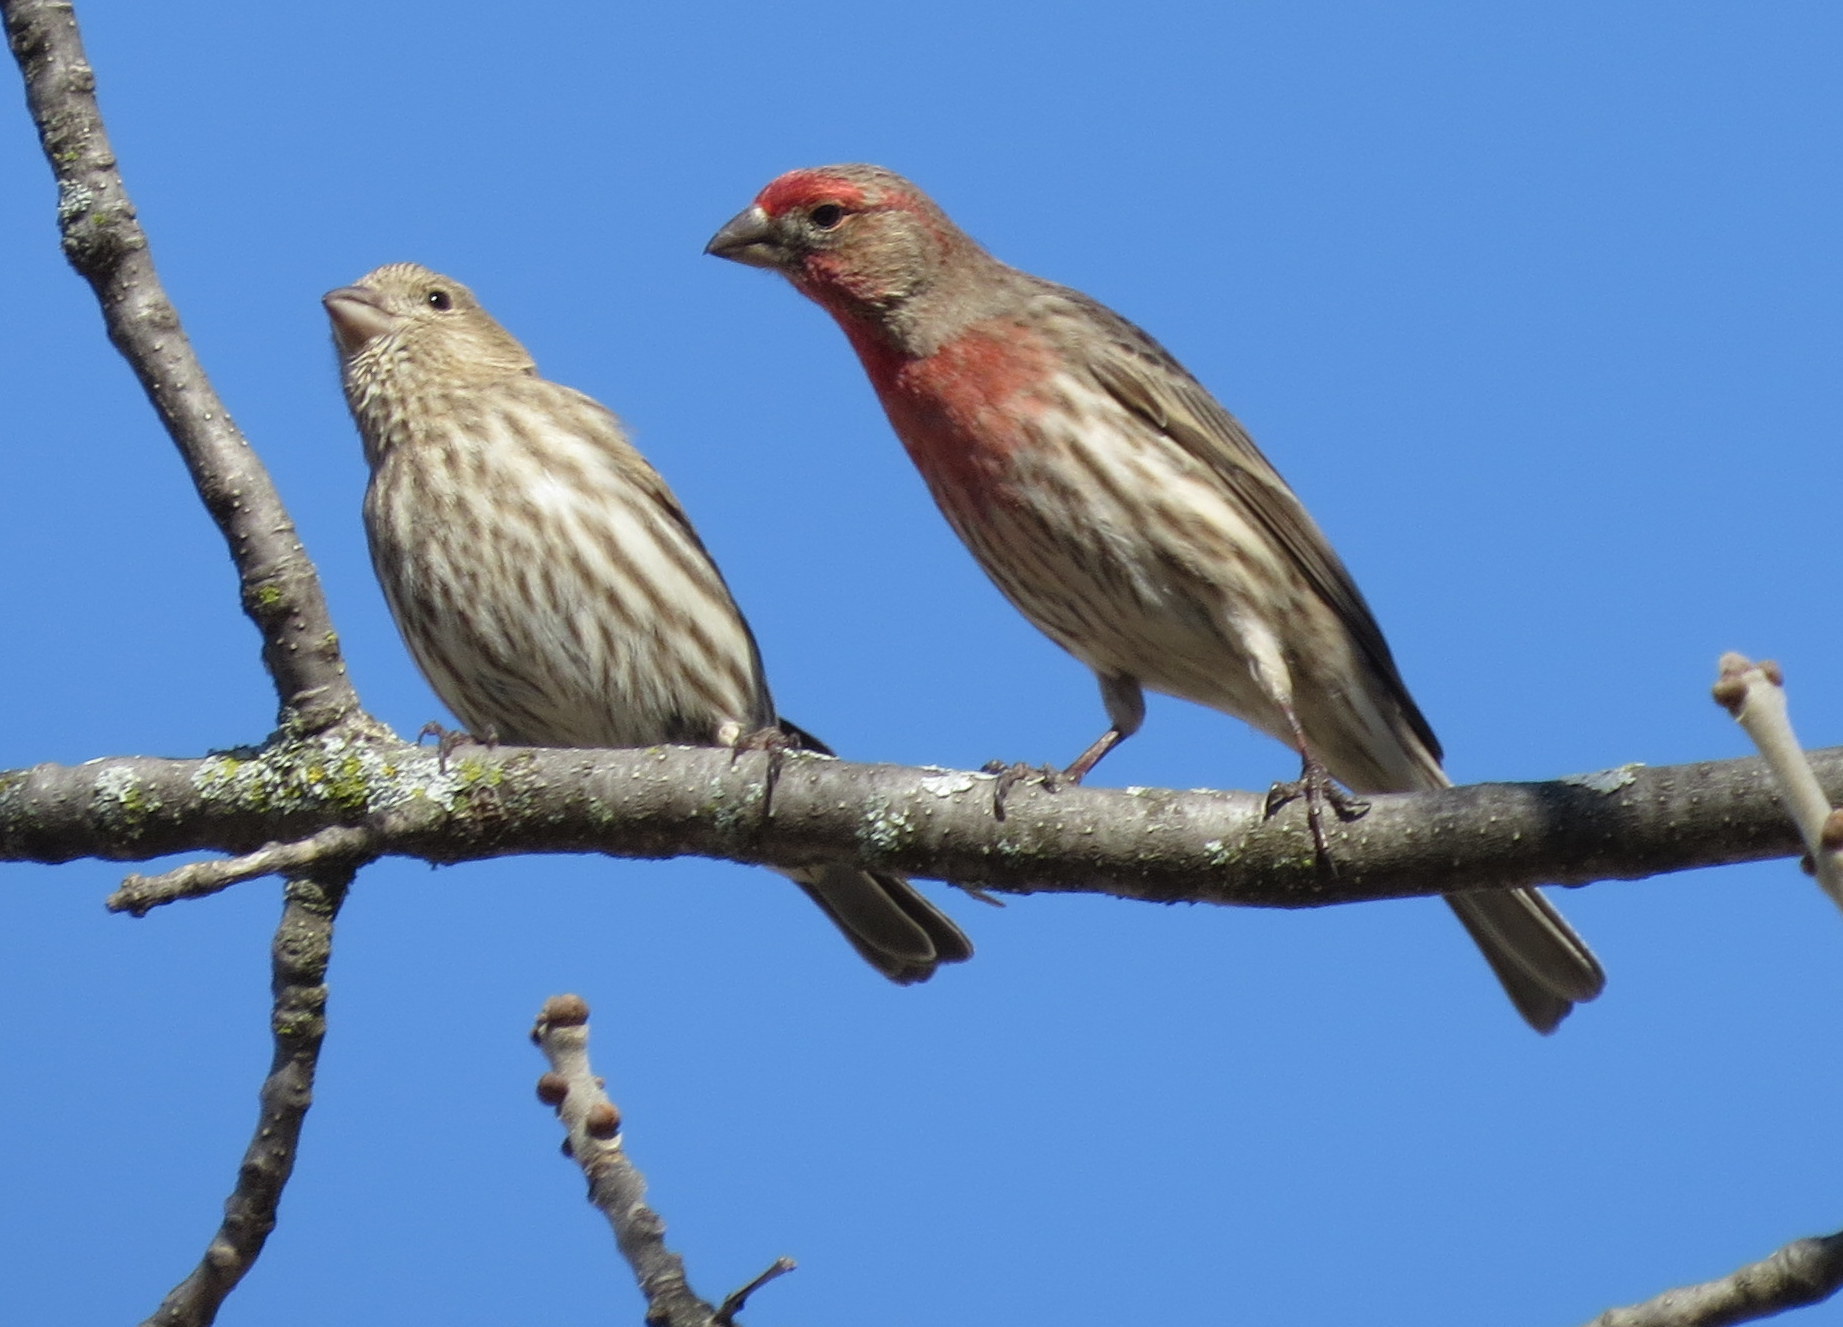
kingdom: Animalia
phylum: Chordata
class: Aves
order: Passeriformes
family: Fringillidae
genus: Haemorhous
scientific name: Haemorhous mexicanus
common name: House finch
